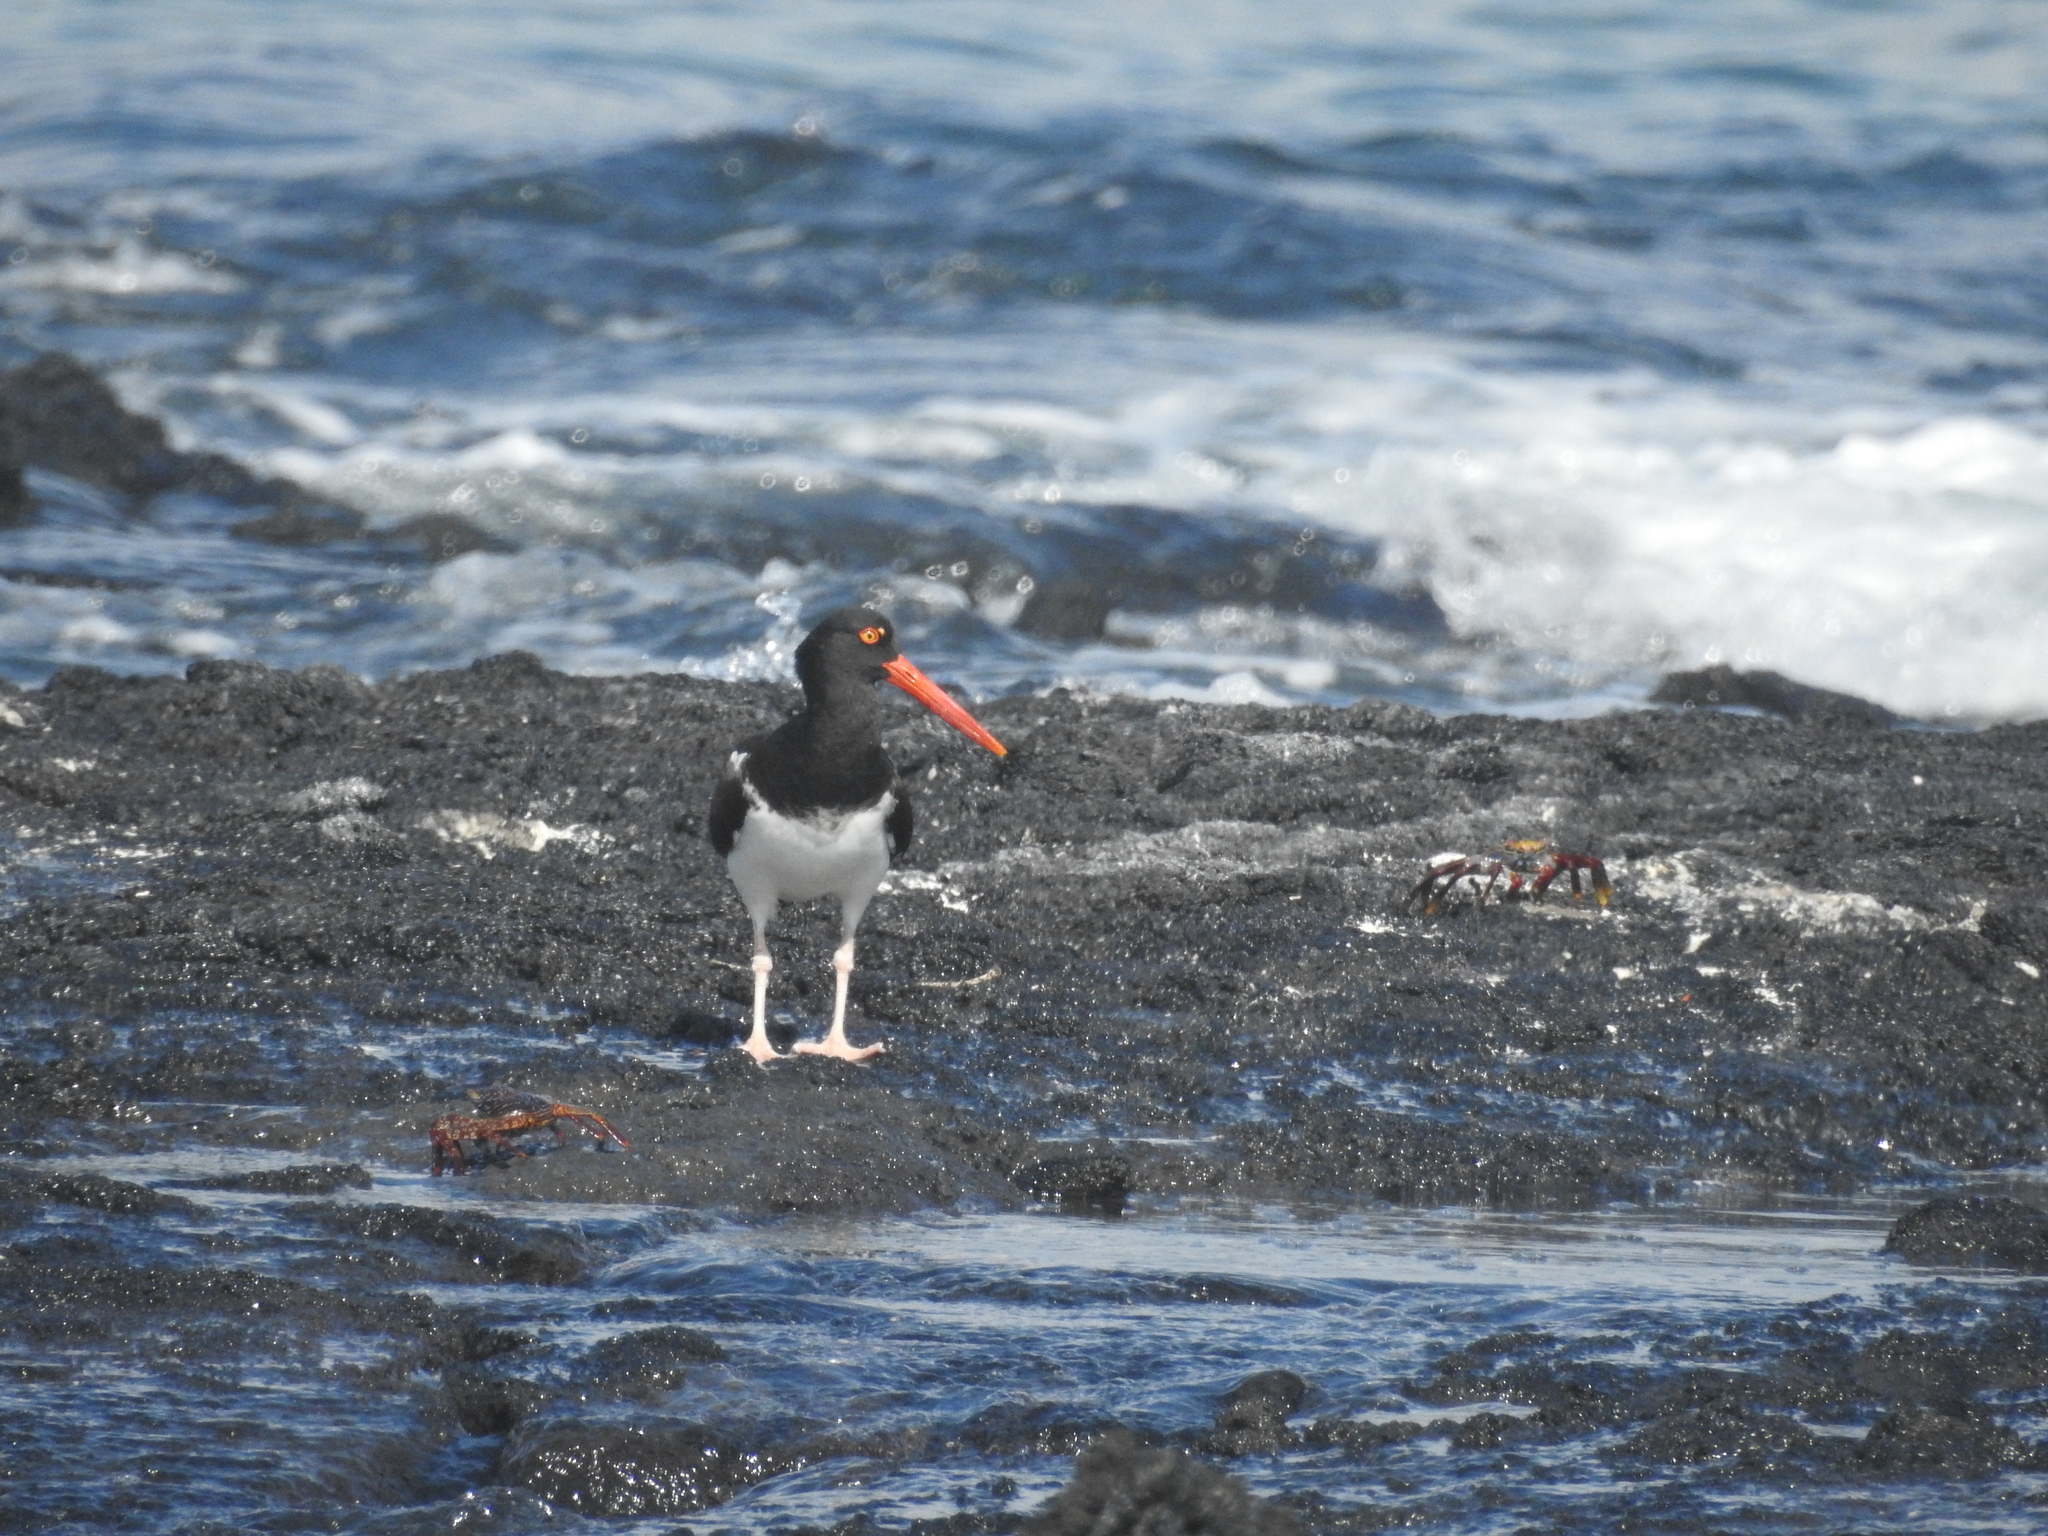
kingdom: Animalia
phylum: Chordata
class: Aves
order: Charadriiformes
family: Haematopodidae
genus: Haematopus
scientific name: Haematopus palliatus
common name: American oystercatcher
